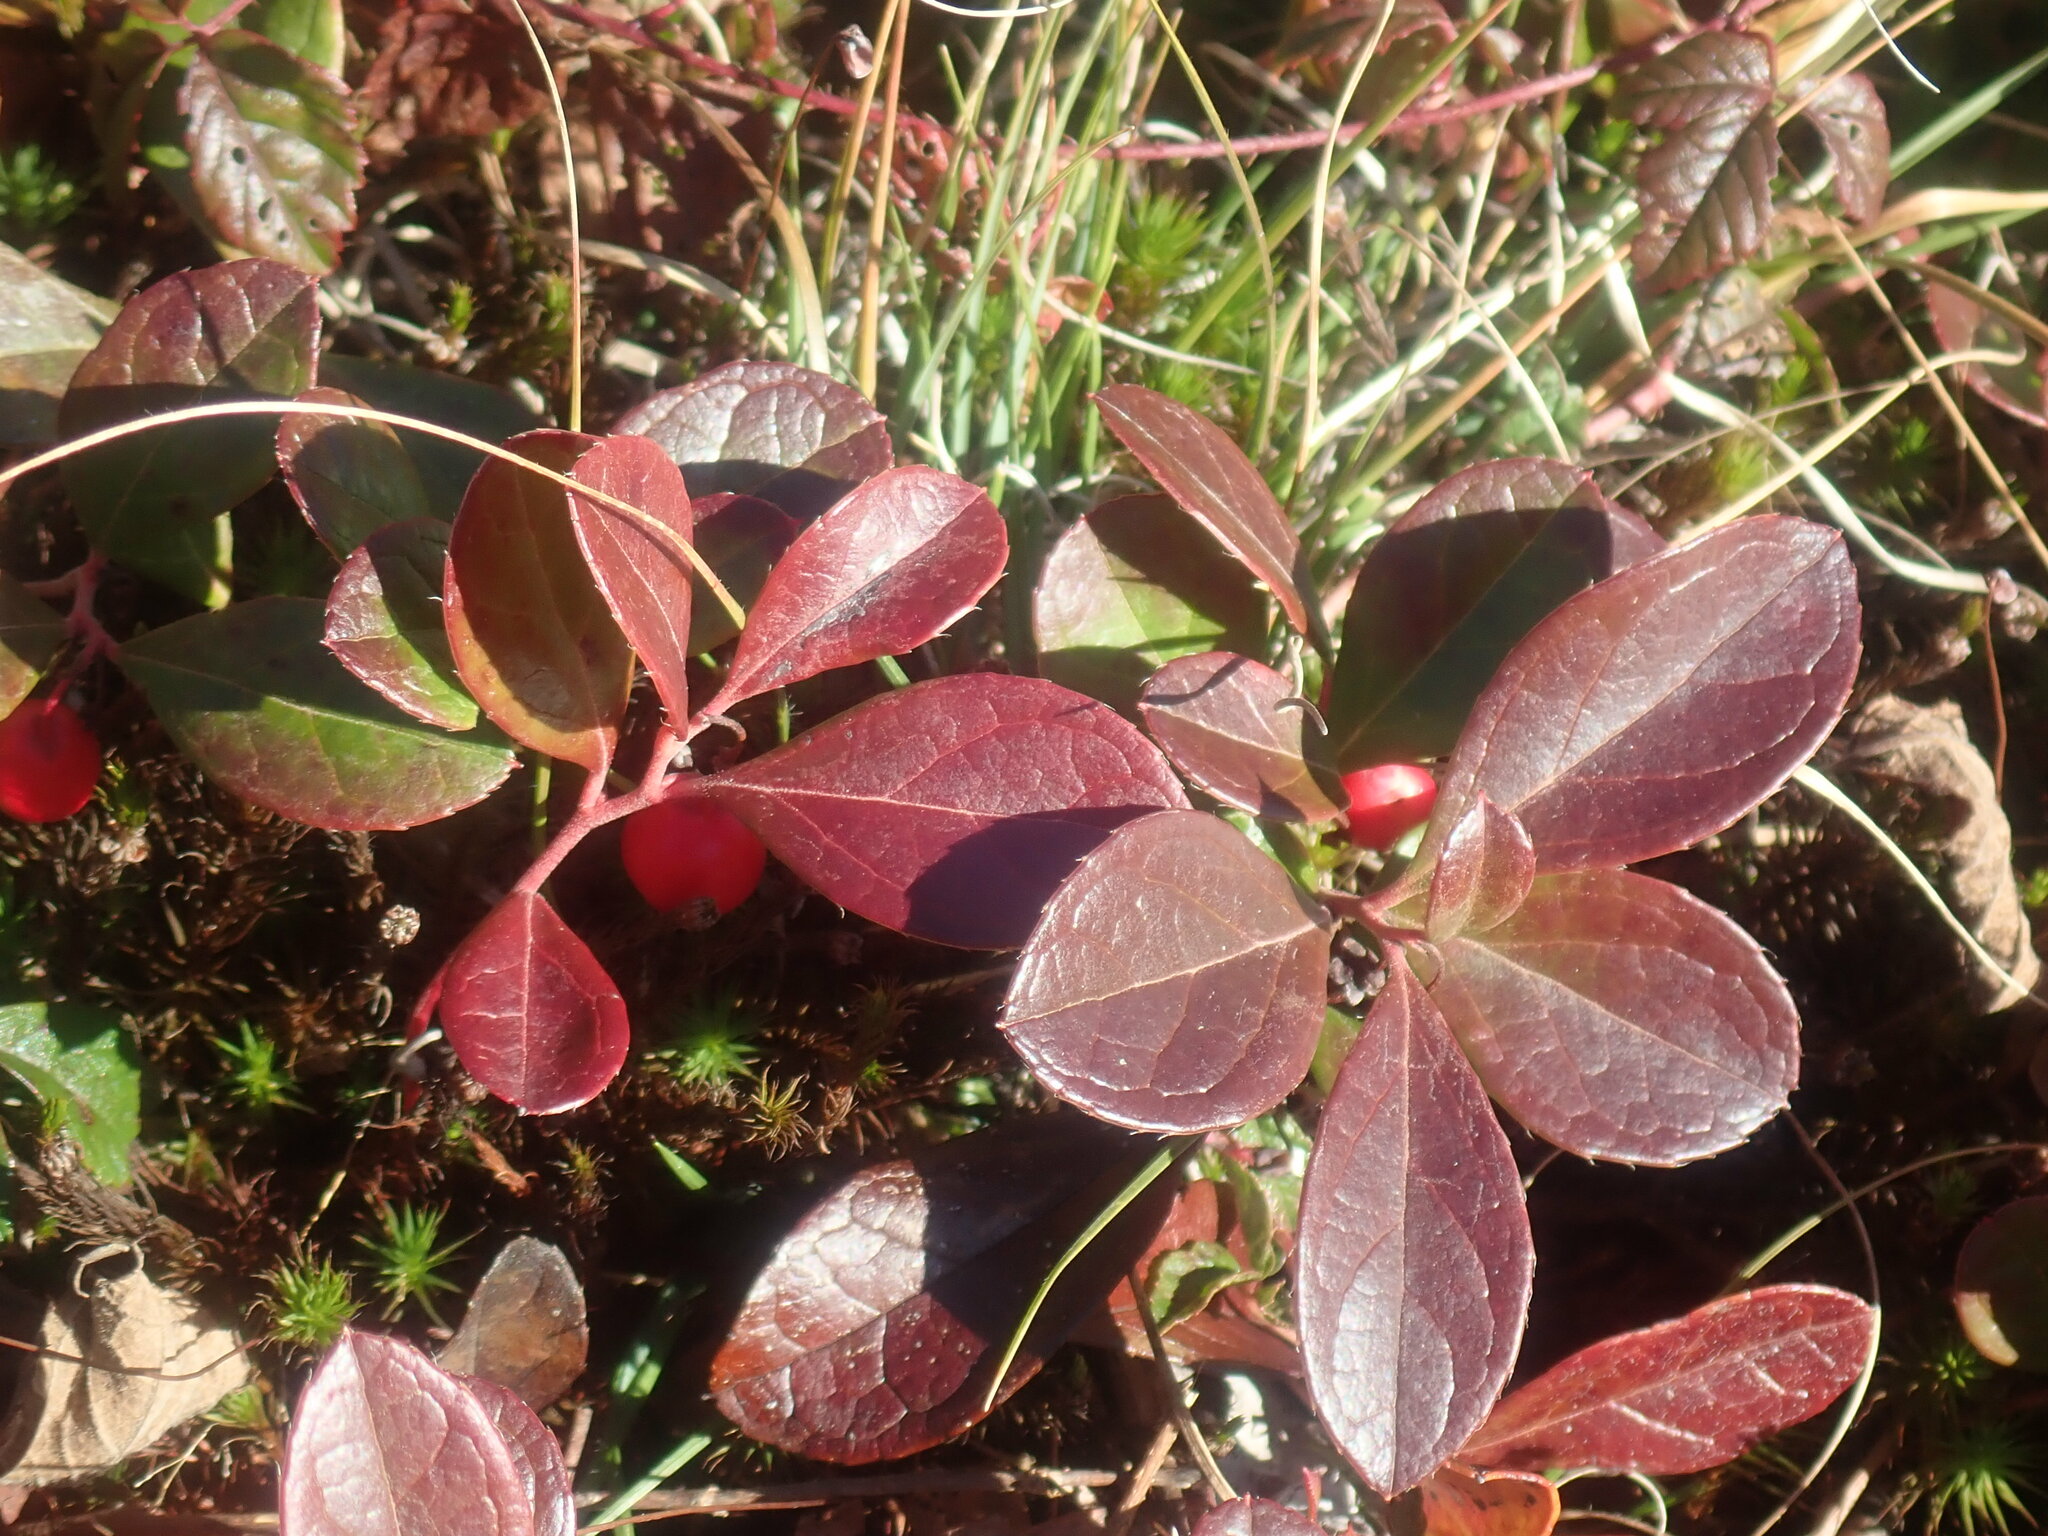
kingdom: Plantae
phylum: Tracheophyta
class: Magnoliopsida
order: Ericales
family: Ericaceae
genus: Gaultheria
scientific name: Gaultheria procumbens
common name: Checkerberry
